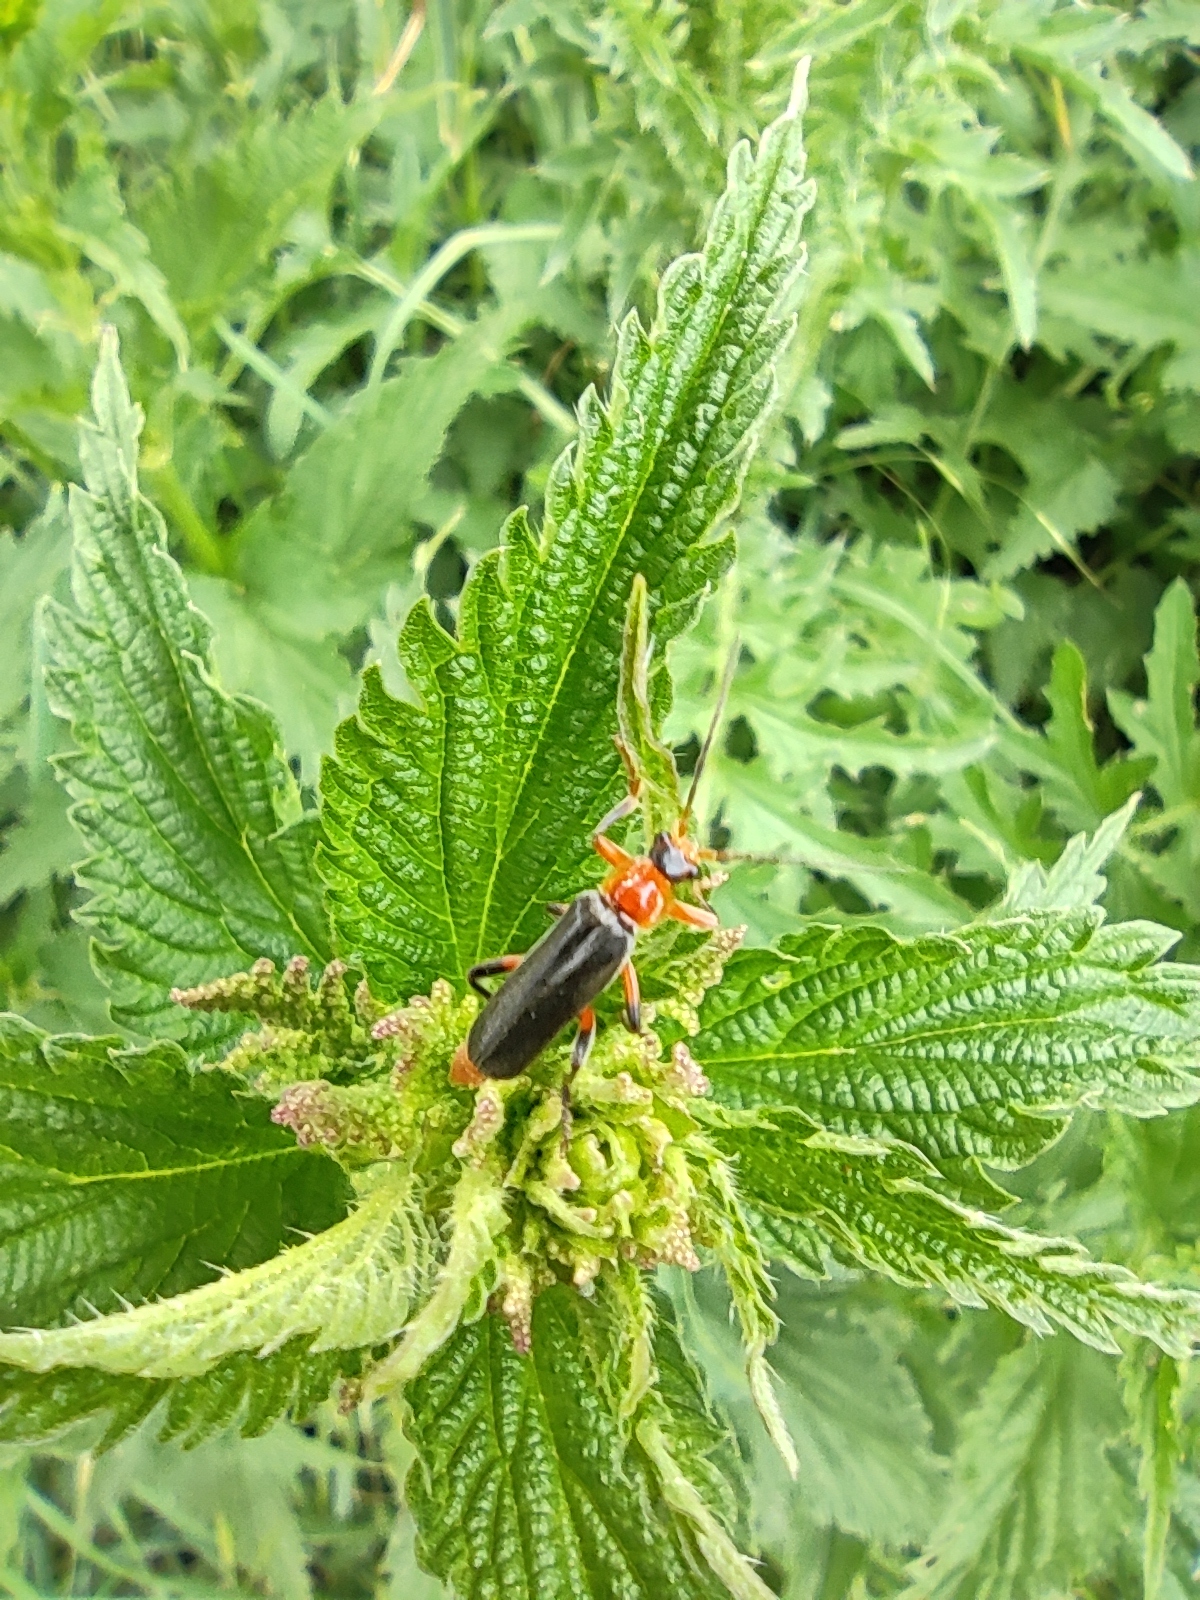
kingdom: Animalia
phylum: Arthropoda
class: Insecta
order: Coleoptera
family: Cantharidae
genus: Cantharis
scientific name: Cantharis livida
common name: Livid soldier beetle
